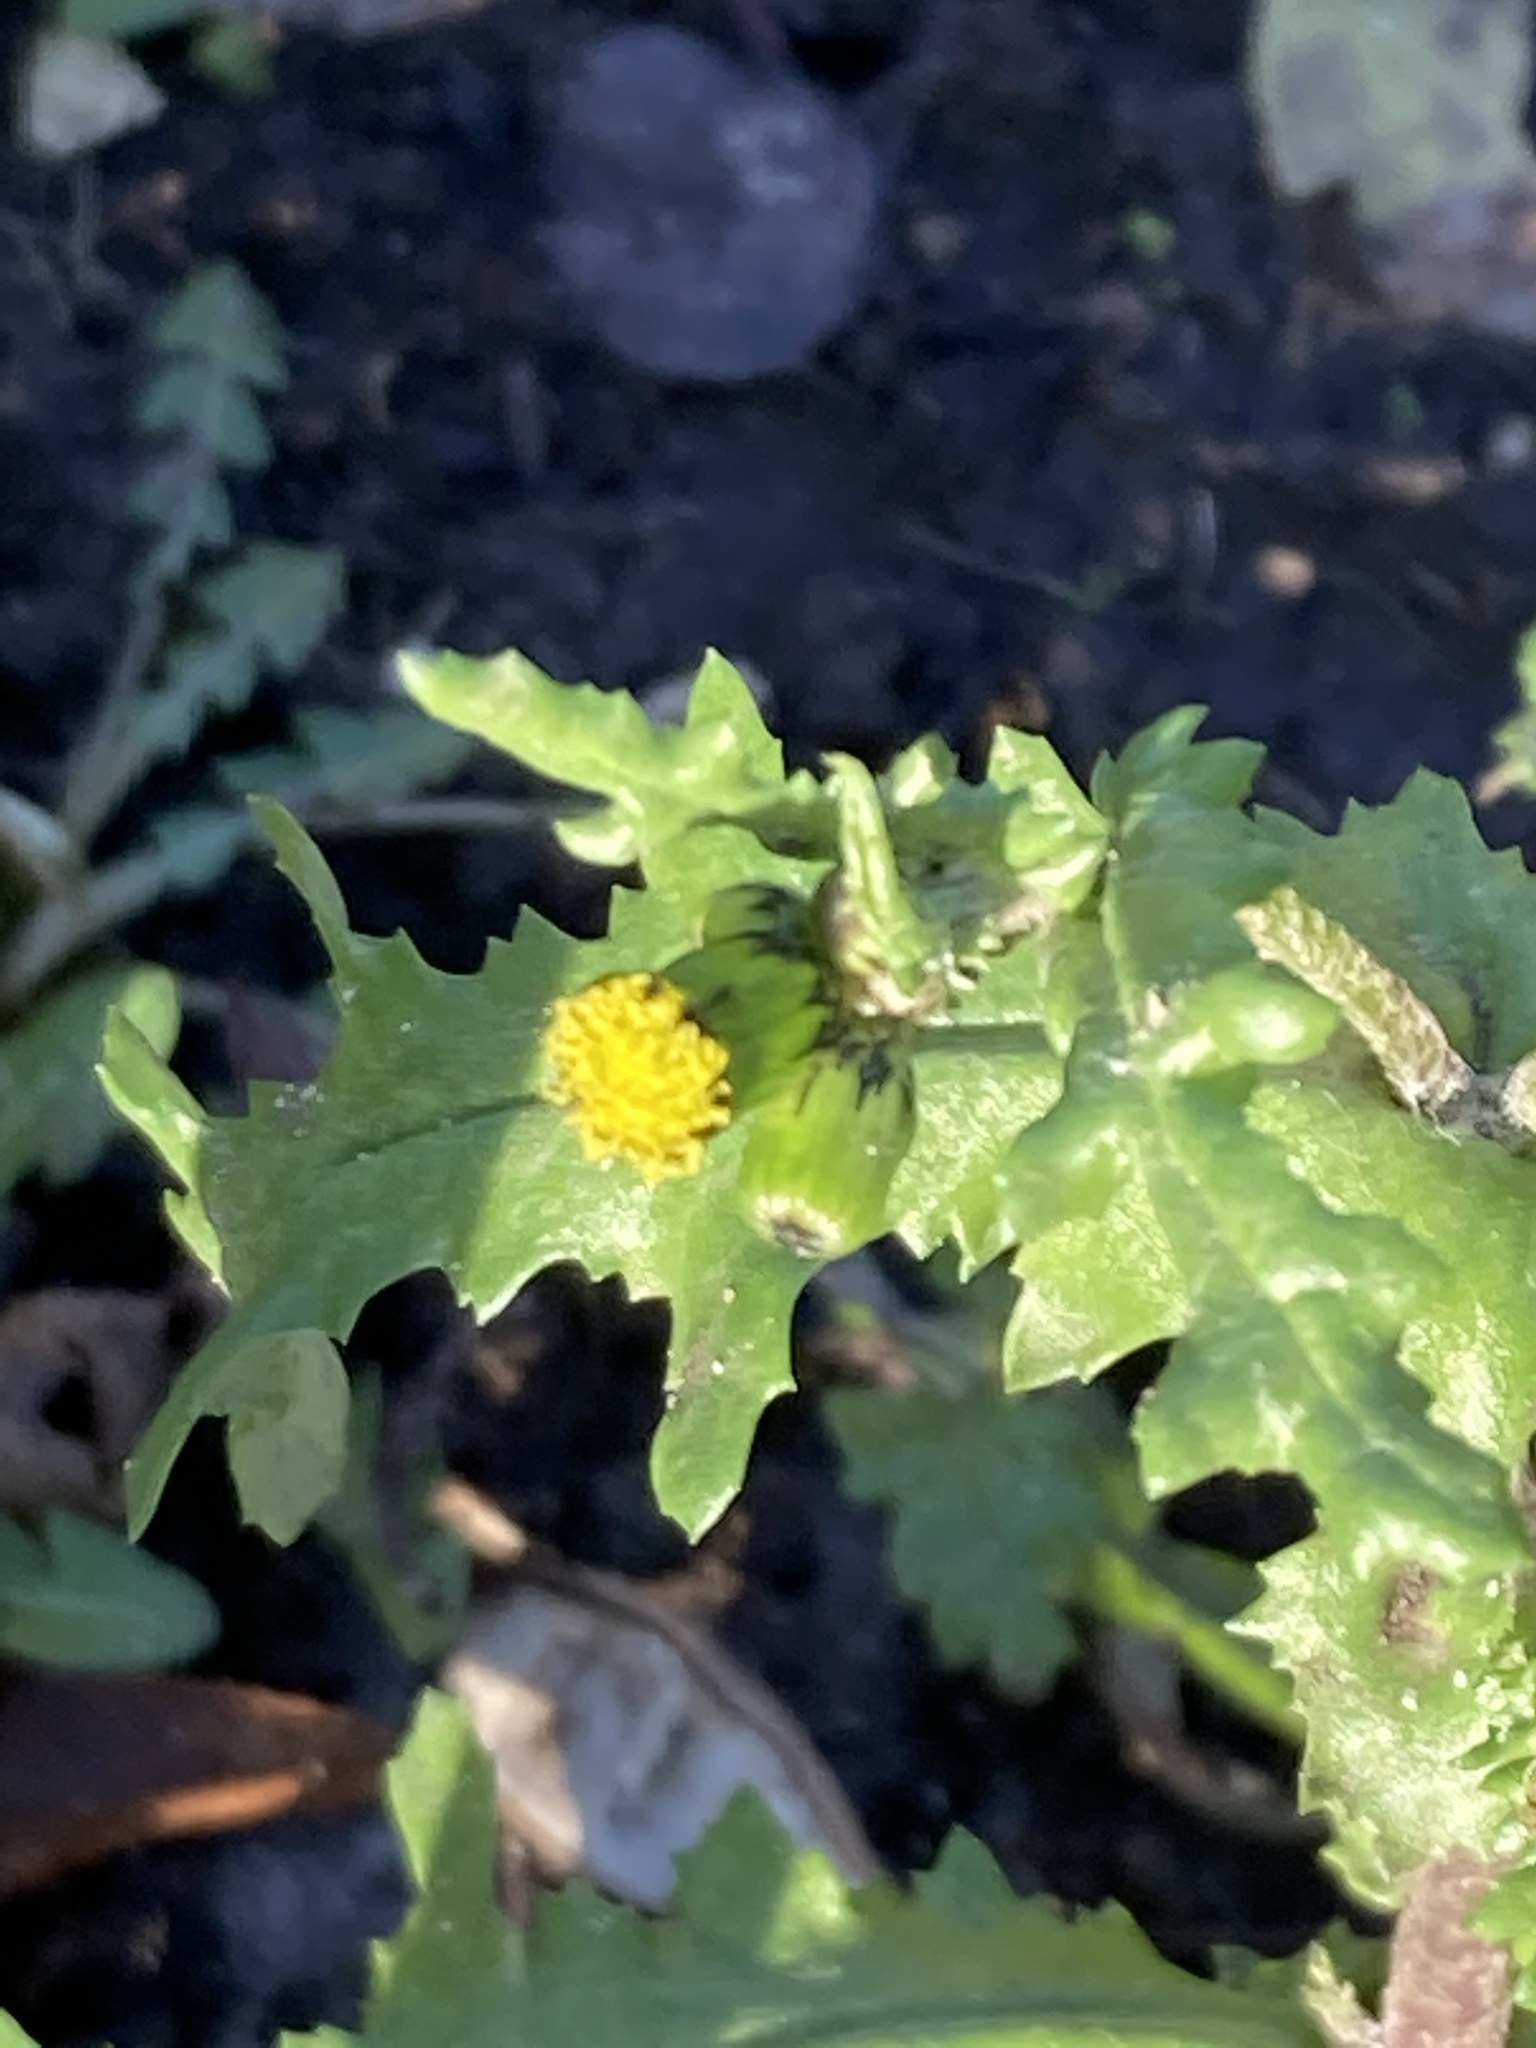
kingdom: Plantae
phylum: Tracheophyta
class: Magnoliopsida
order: Asterales
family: Asteraceae
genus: Senecio
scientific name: Senecio vulgaris
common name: Old-man-in-the-spring
